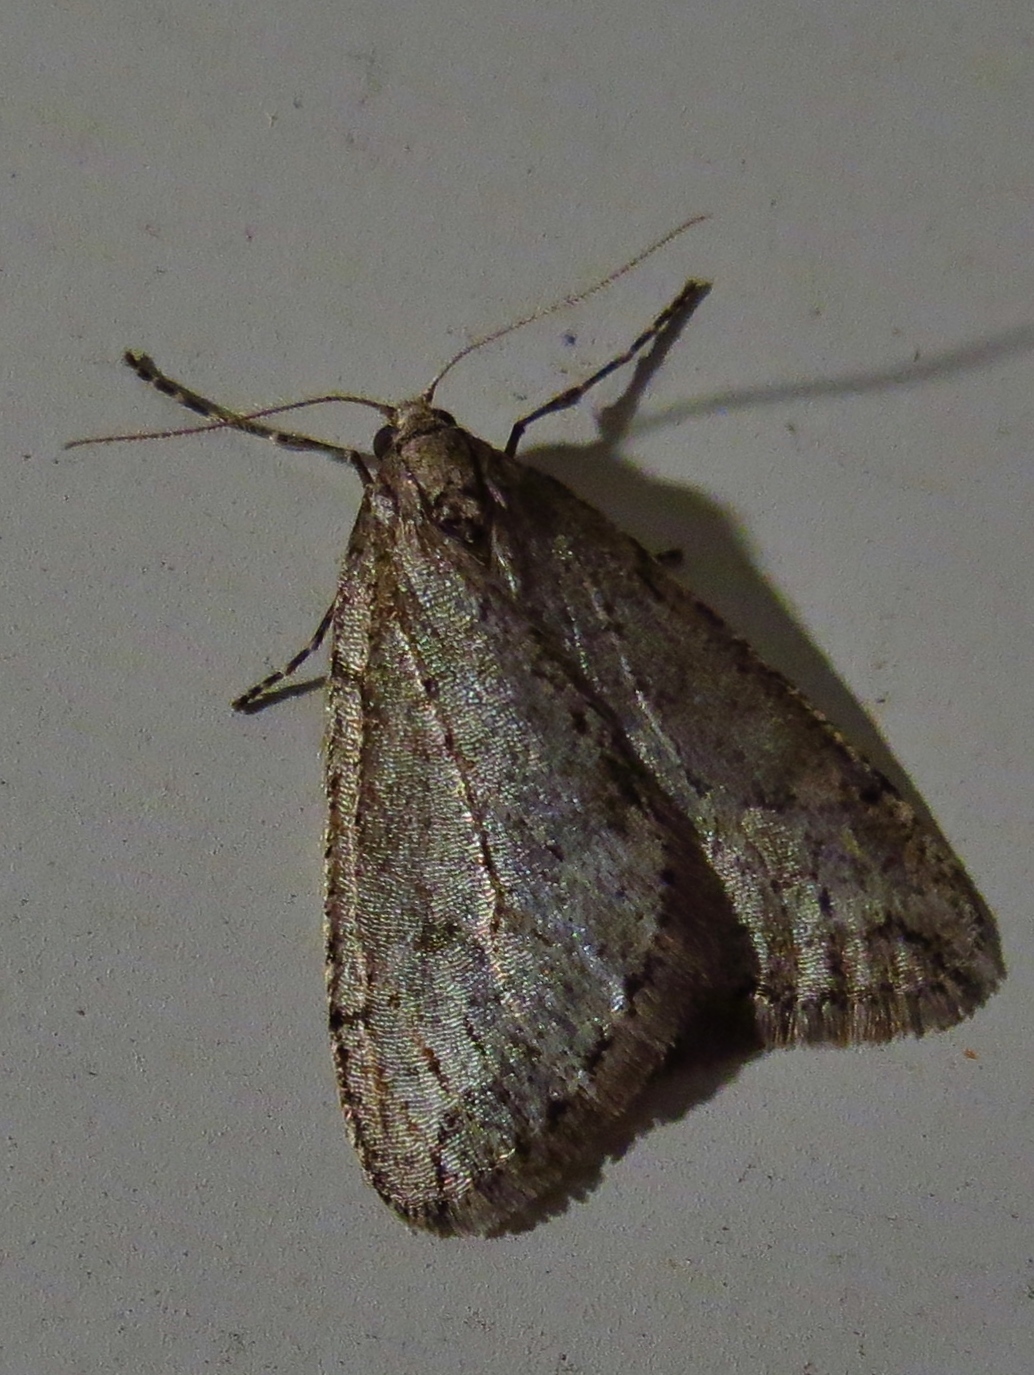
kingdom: Animalia
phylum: Arthropoda
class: Insecta
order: Lepidoptera
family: Geometridae
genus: Paleacrita
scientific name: Paleacrita vernata
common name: Spring cankerworm
